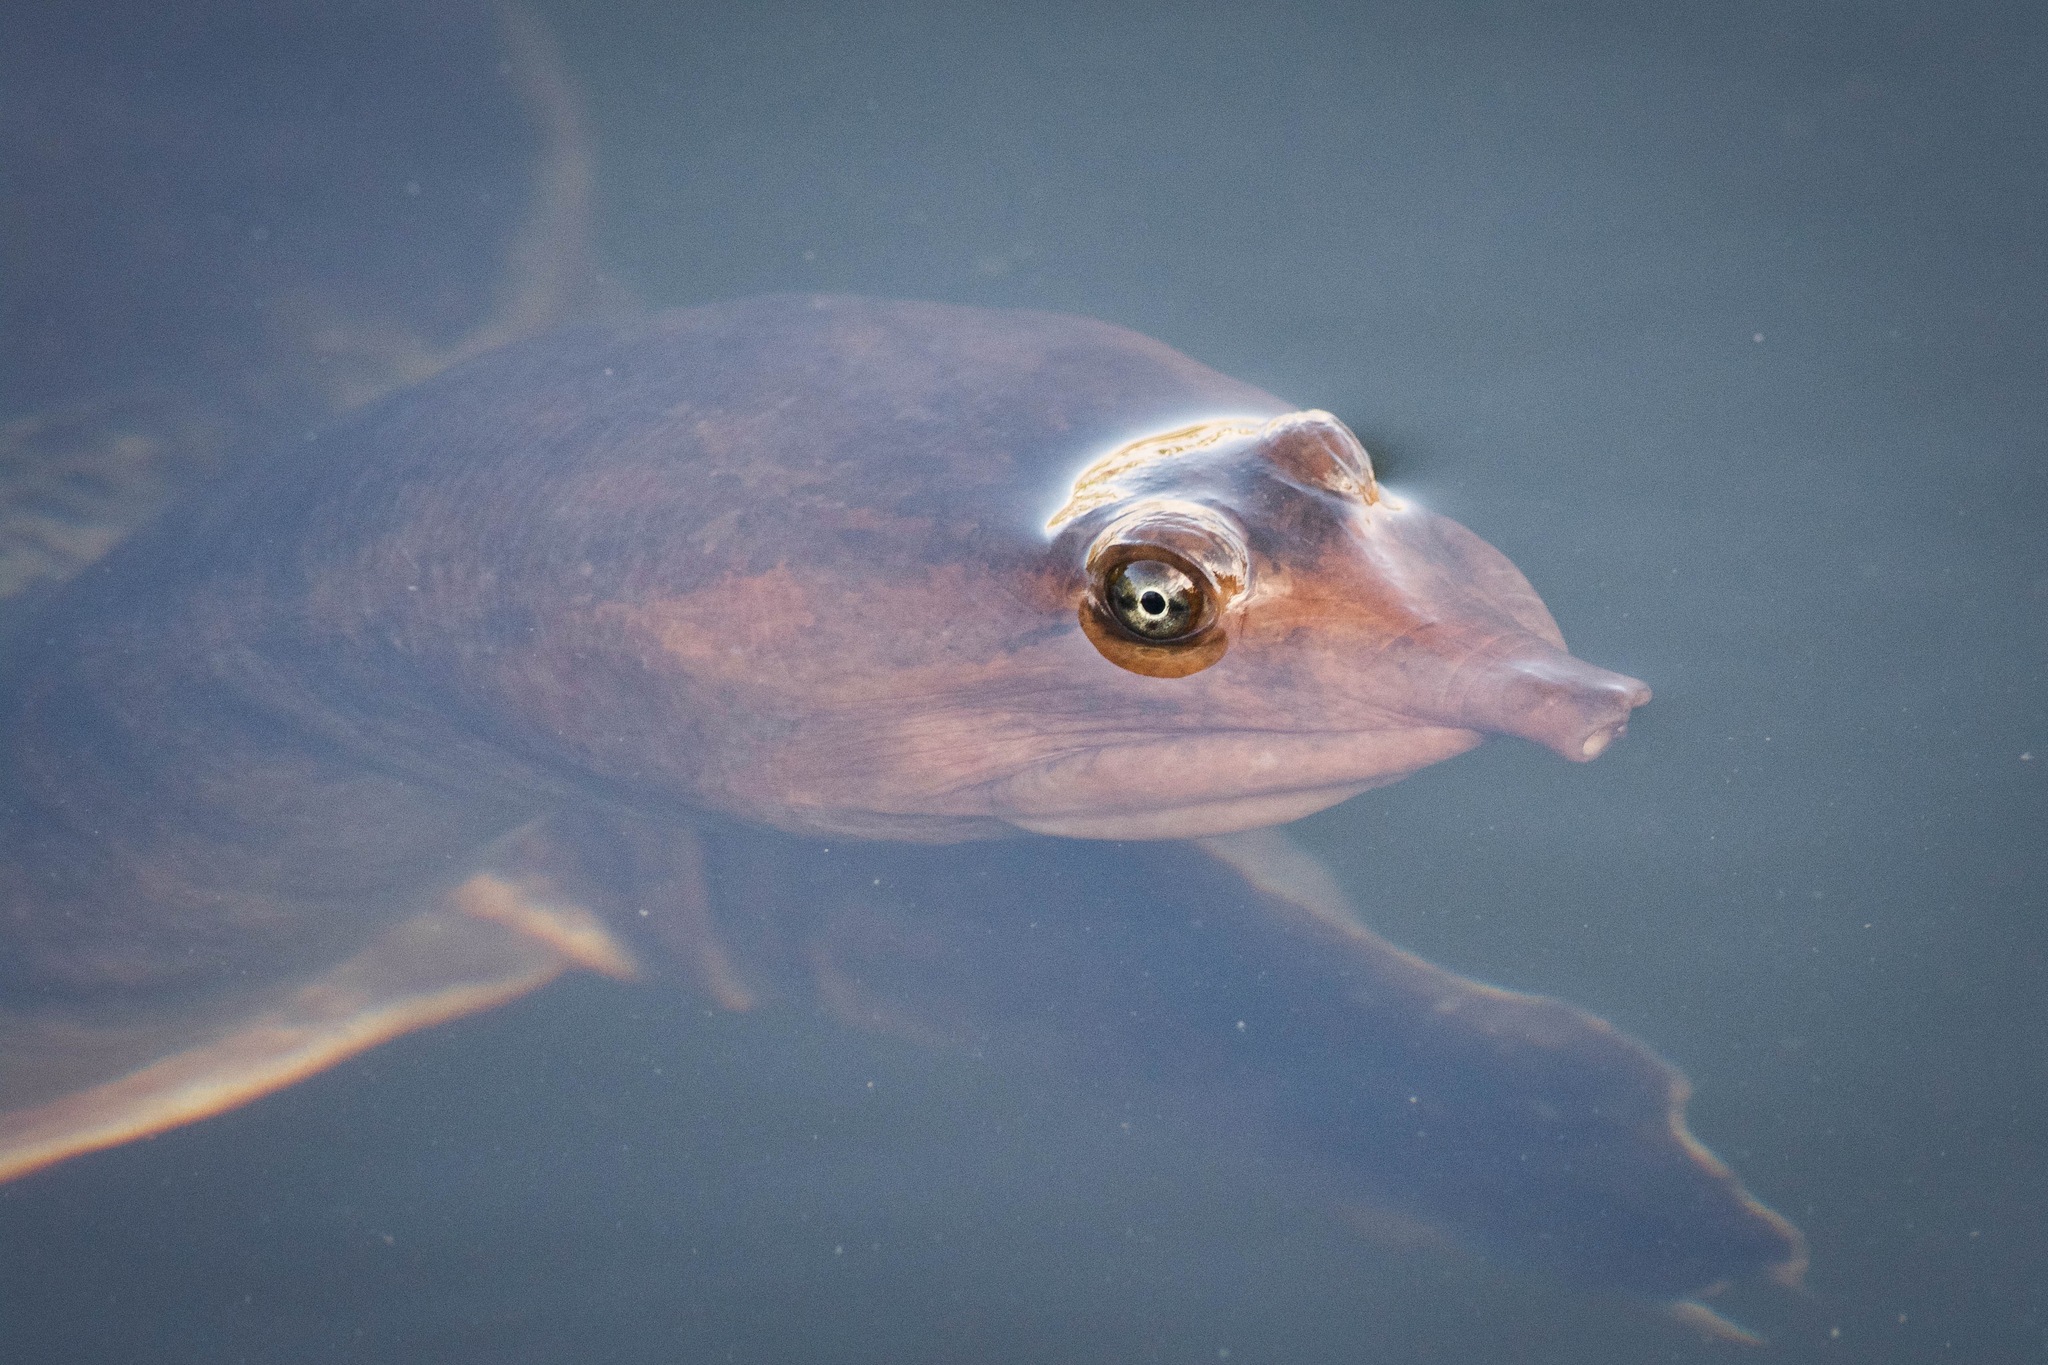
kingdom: Animalia
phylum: Chordata
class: Testudines
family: Trionychidae
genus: Apalone
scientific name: Apalone ferox
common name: Florida softshell turtle
